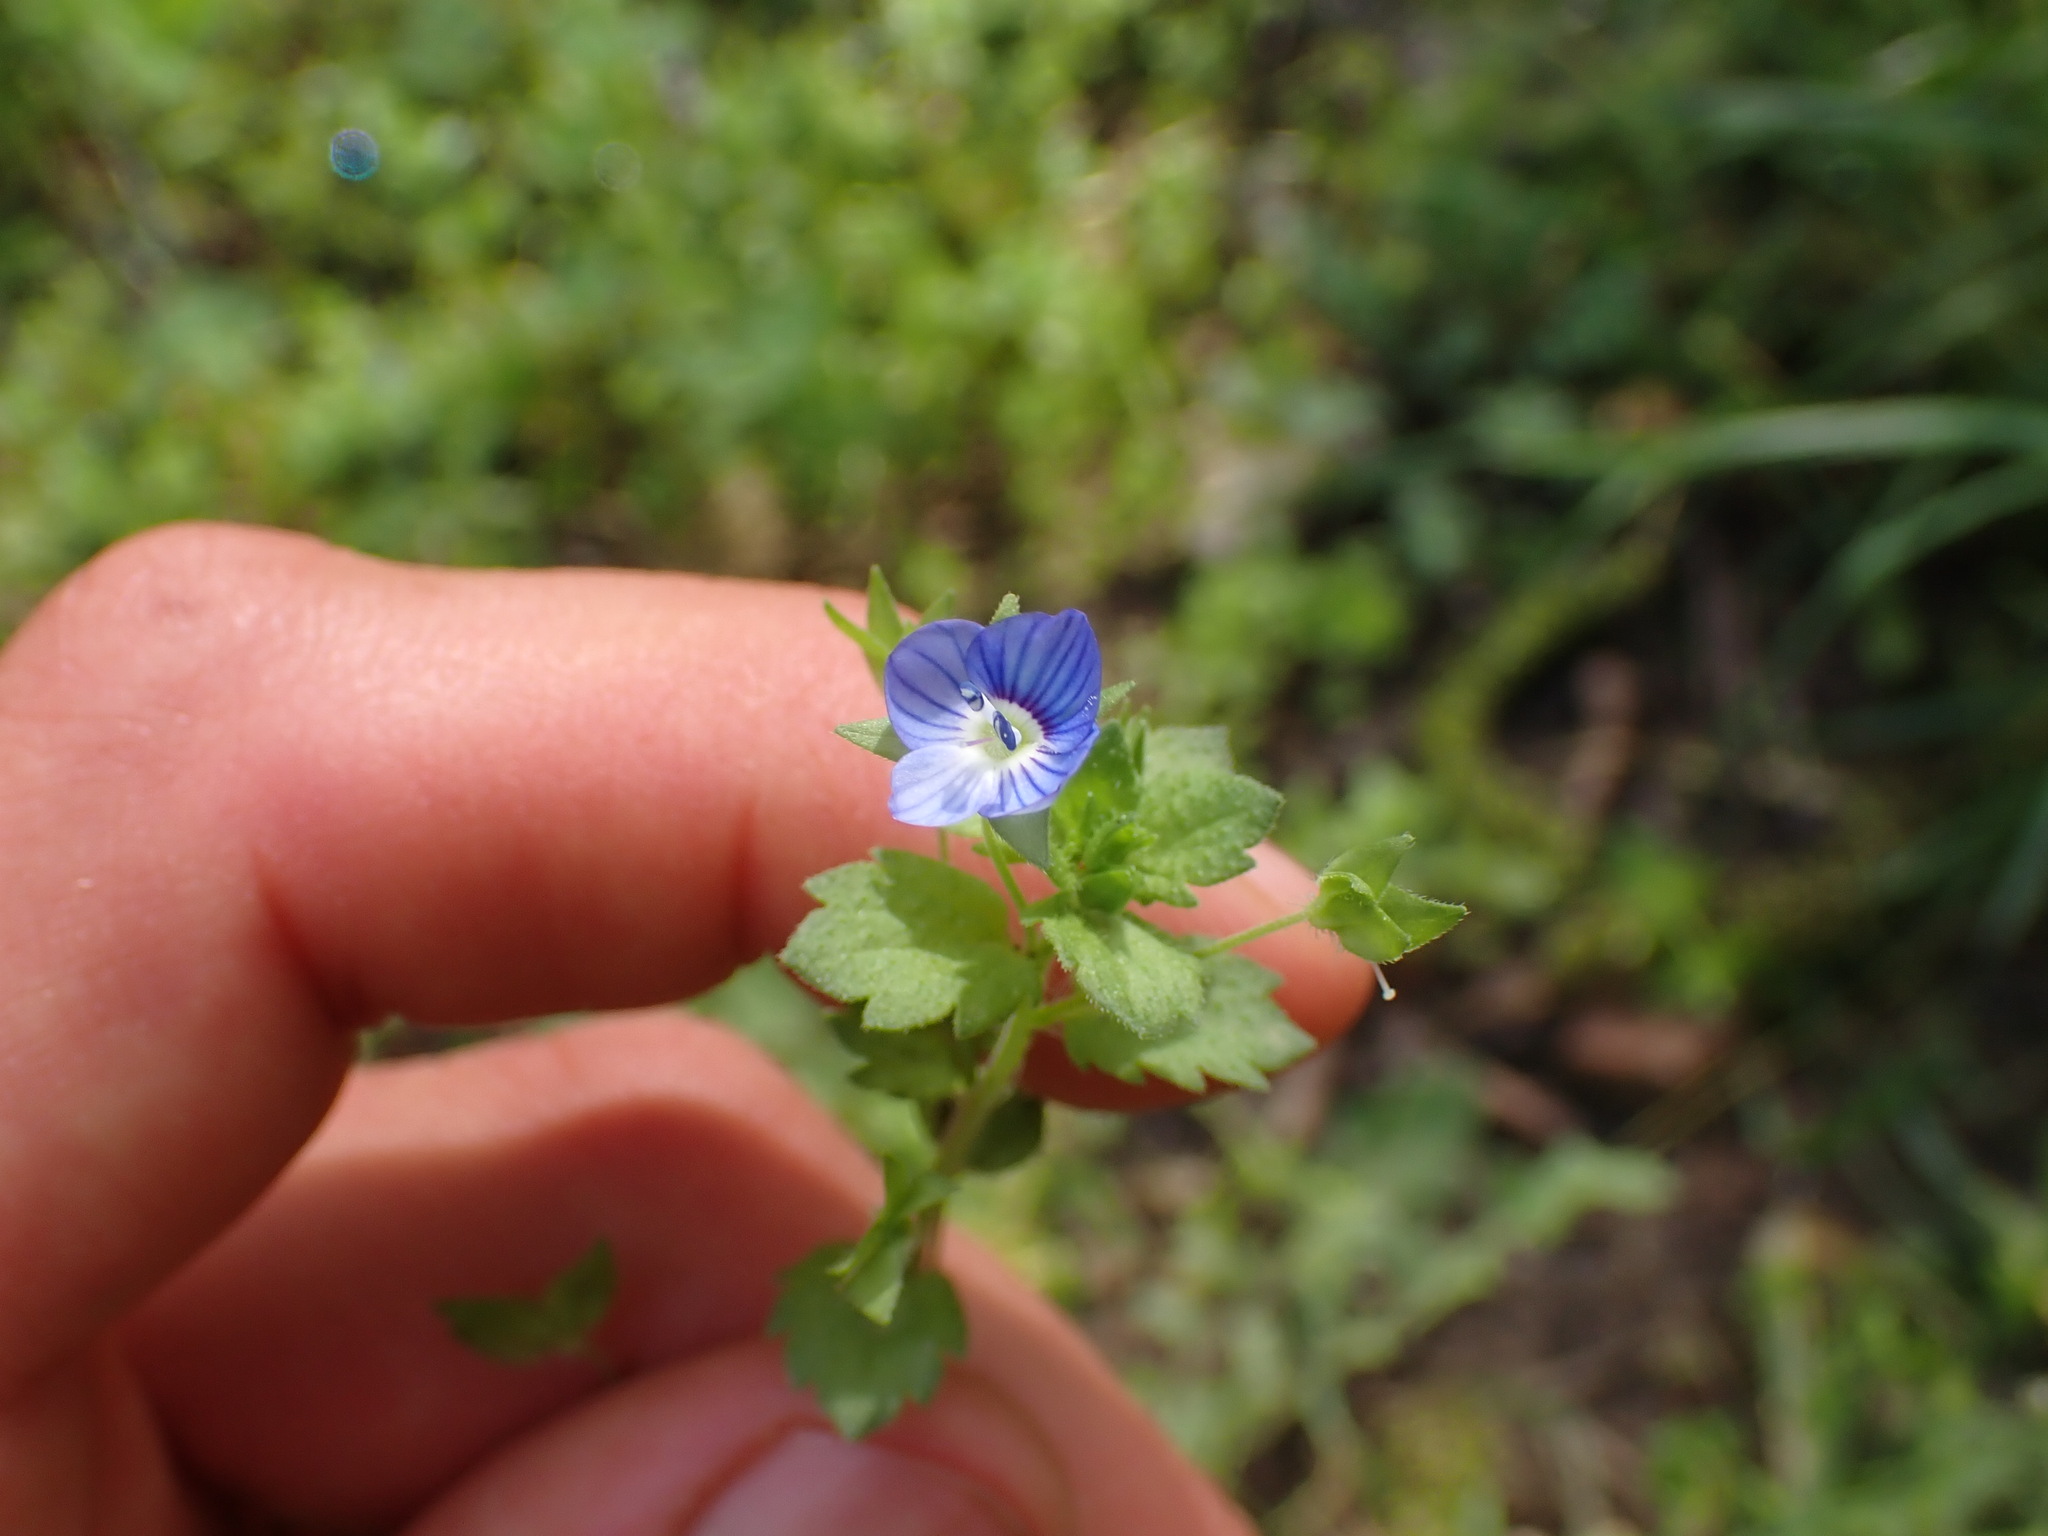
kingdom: Plantae
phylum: Tracheophyta
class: Magnoliopsida
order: Lamiales
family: Plantaginaceae
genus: Veronica
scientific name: Veronica persica
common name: Common field-speedwell
